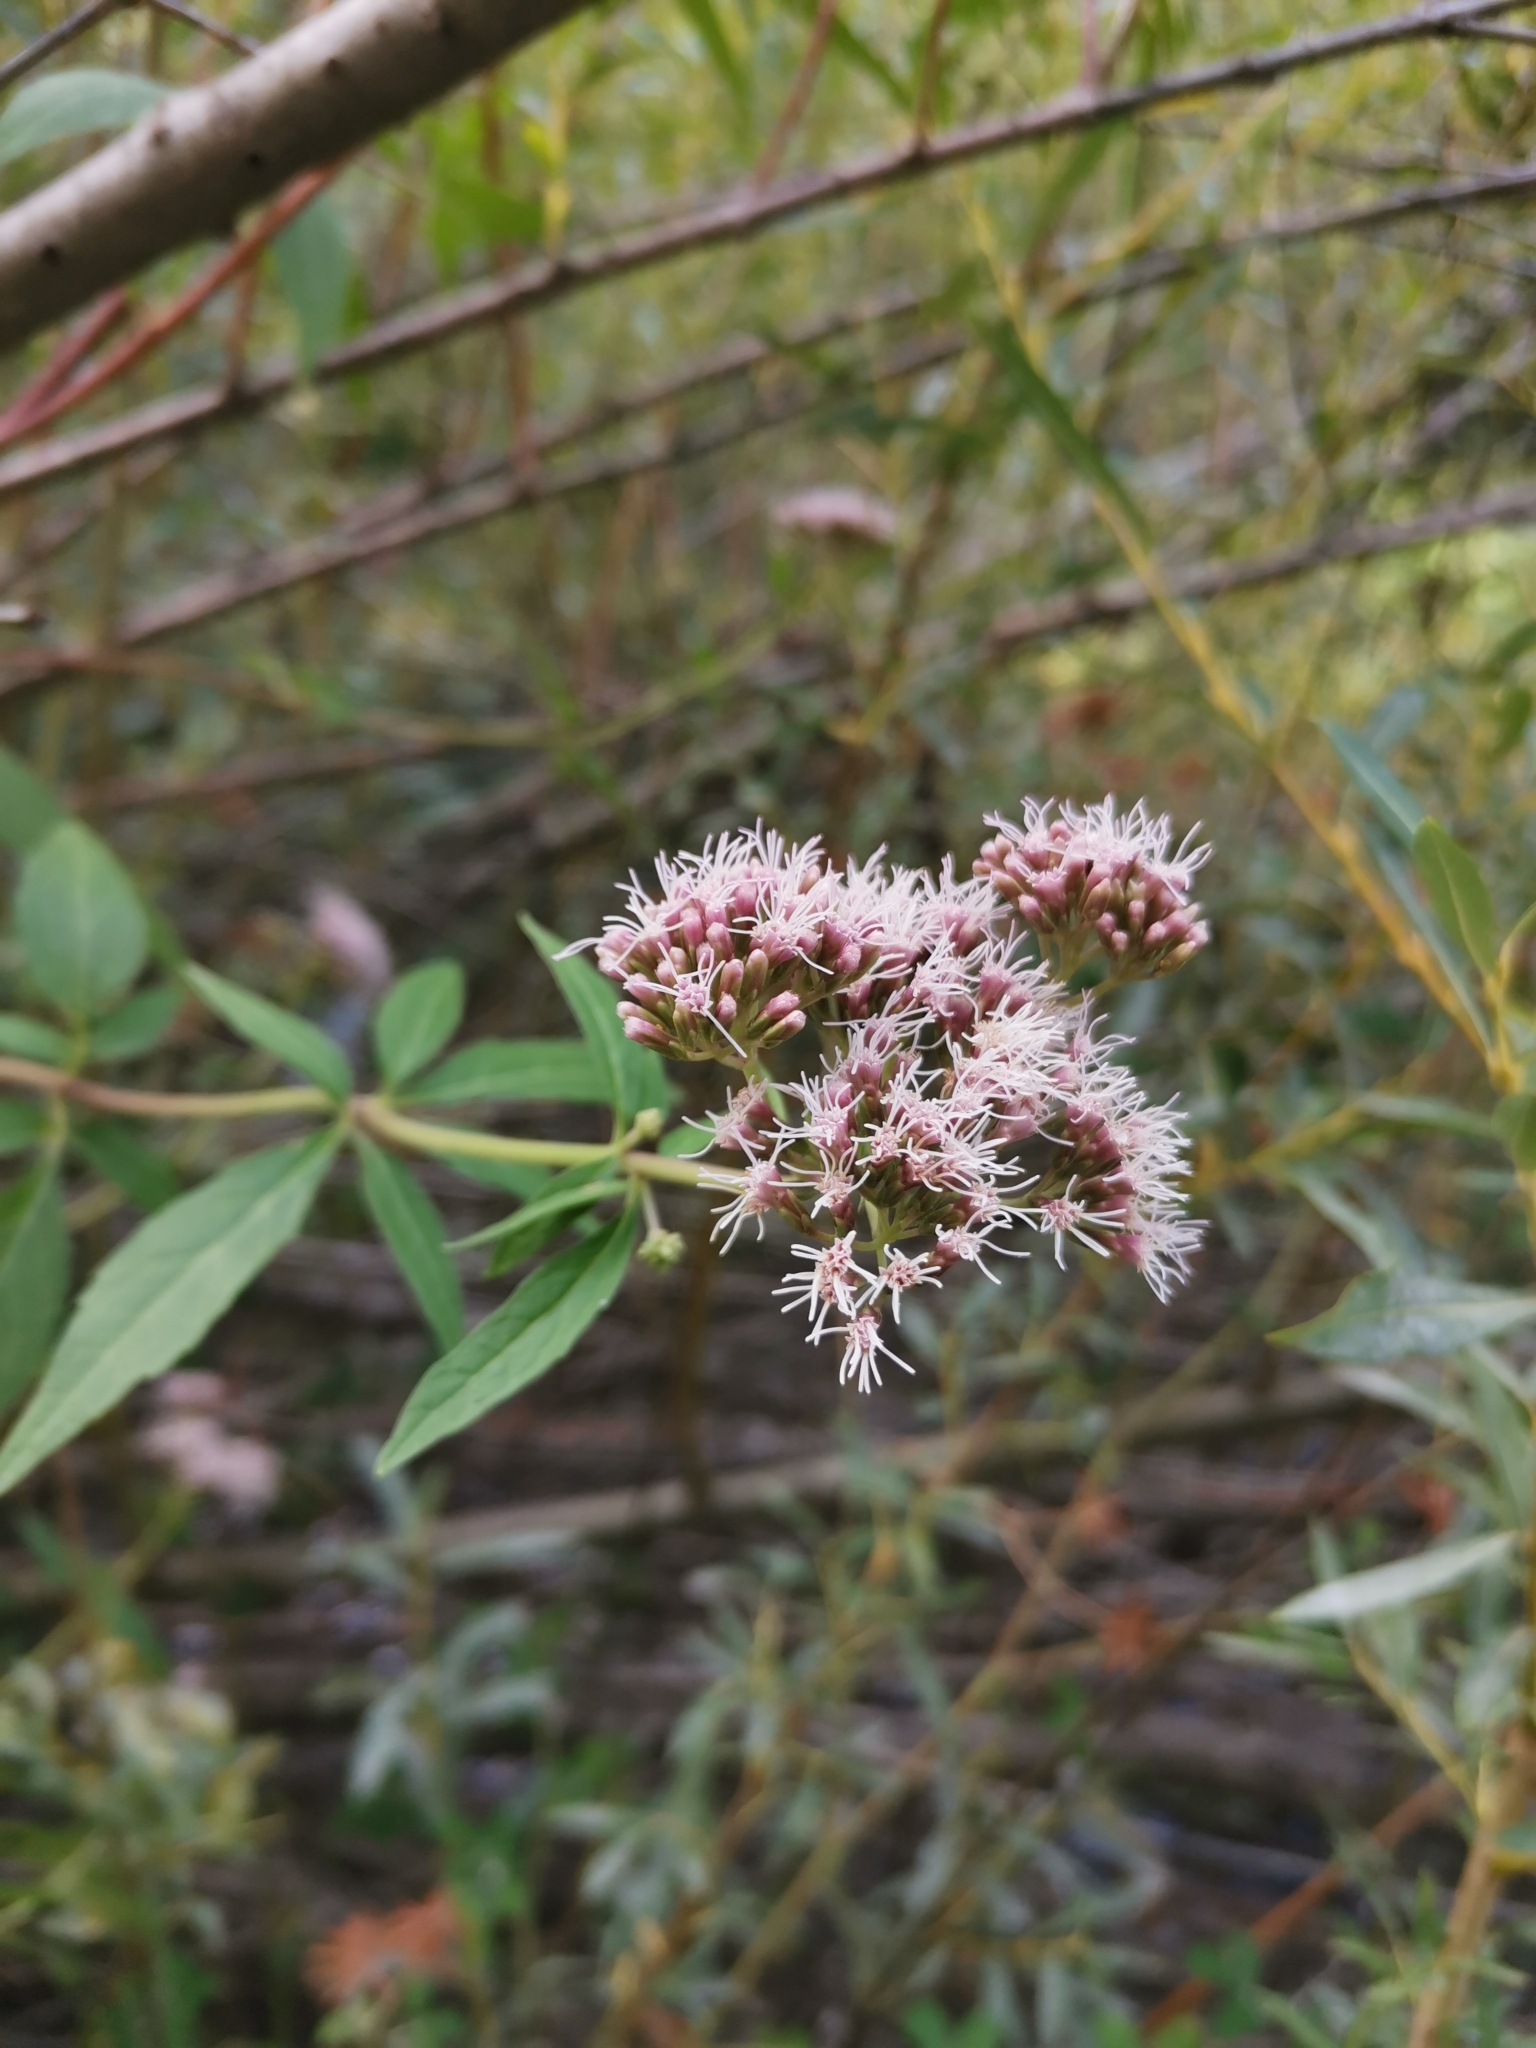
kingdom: Plantae
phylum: Tracheophyta
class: Magnoliopsida
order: Asterales
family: Asteraceae
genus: Eupatorium
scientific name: Eupatorium cannabinum
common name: Hemp-agrimony
